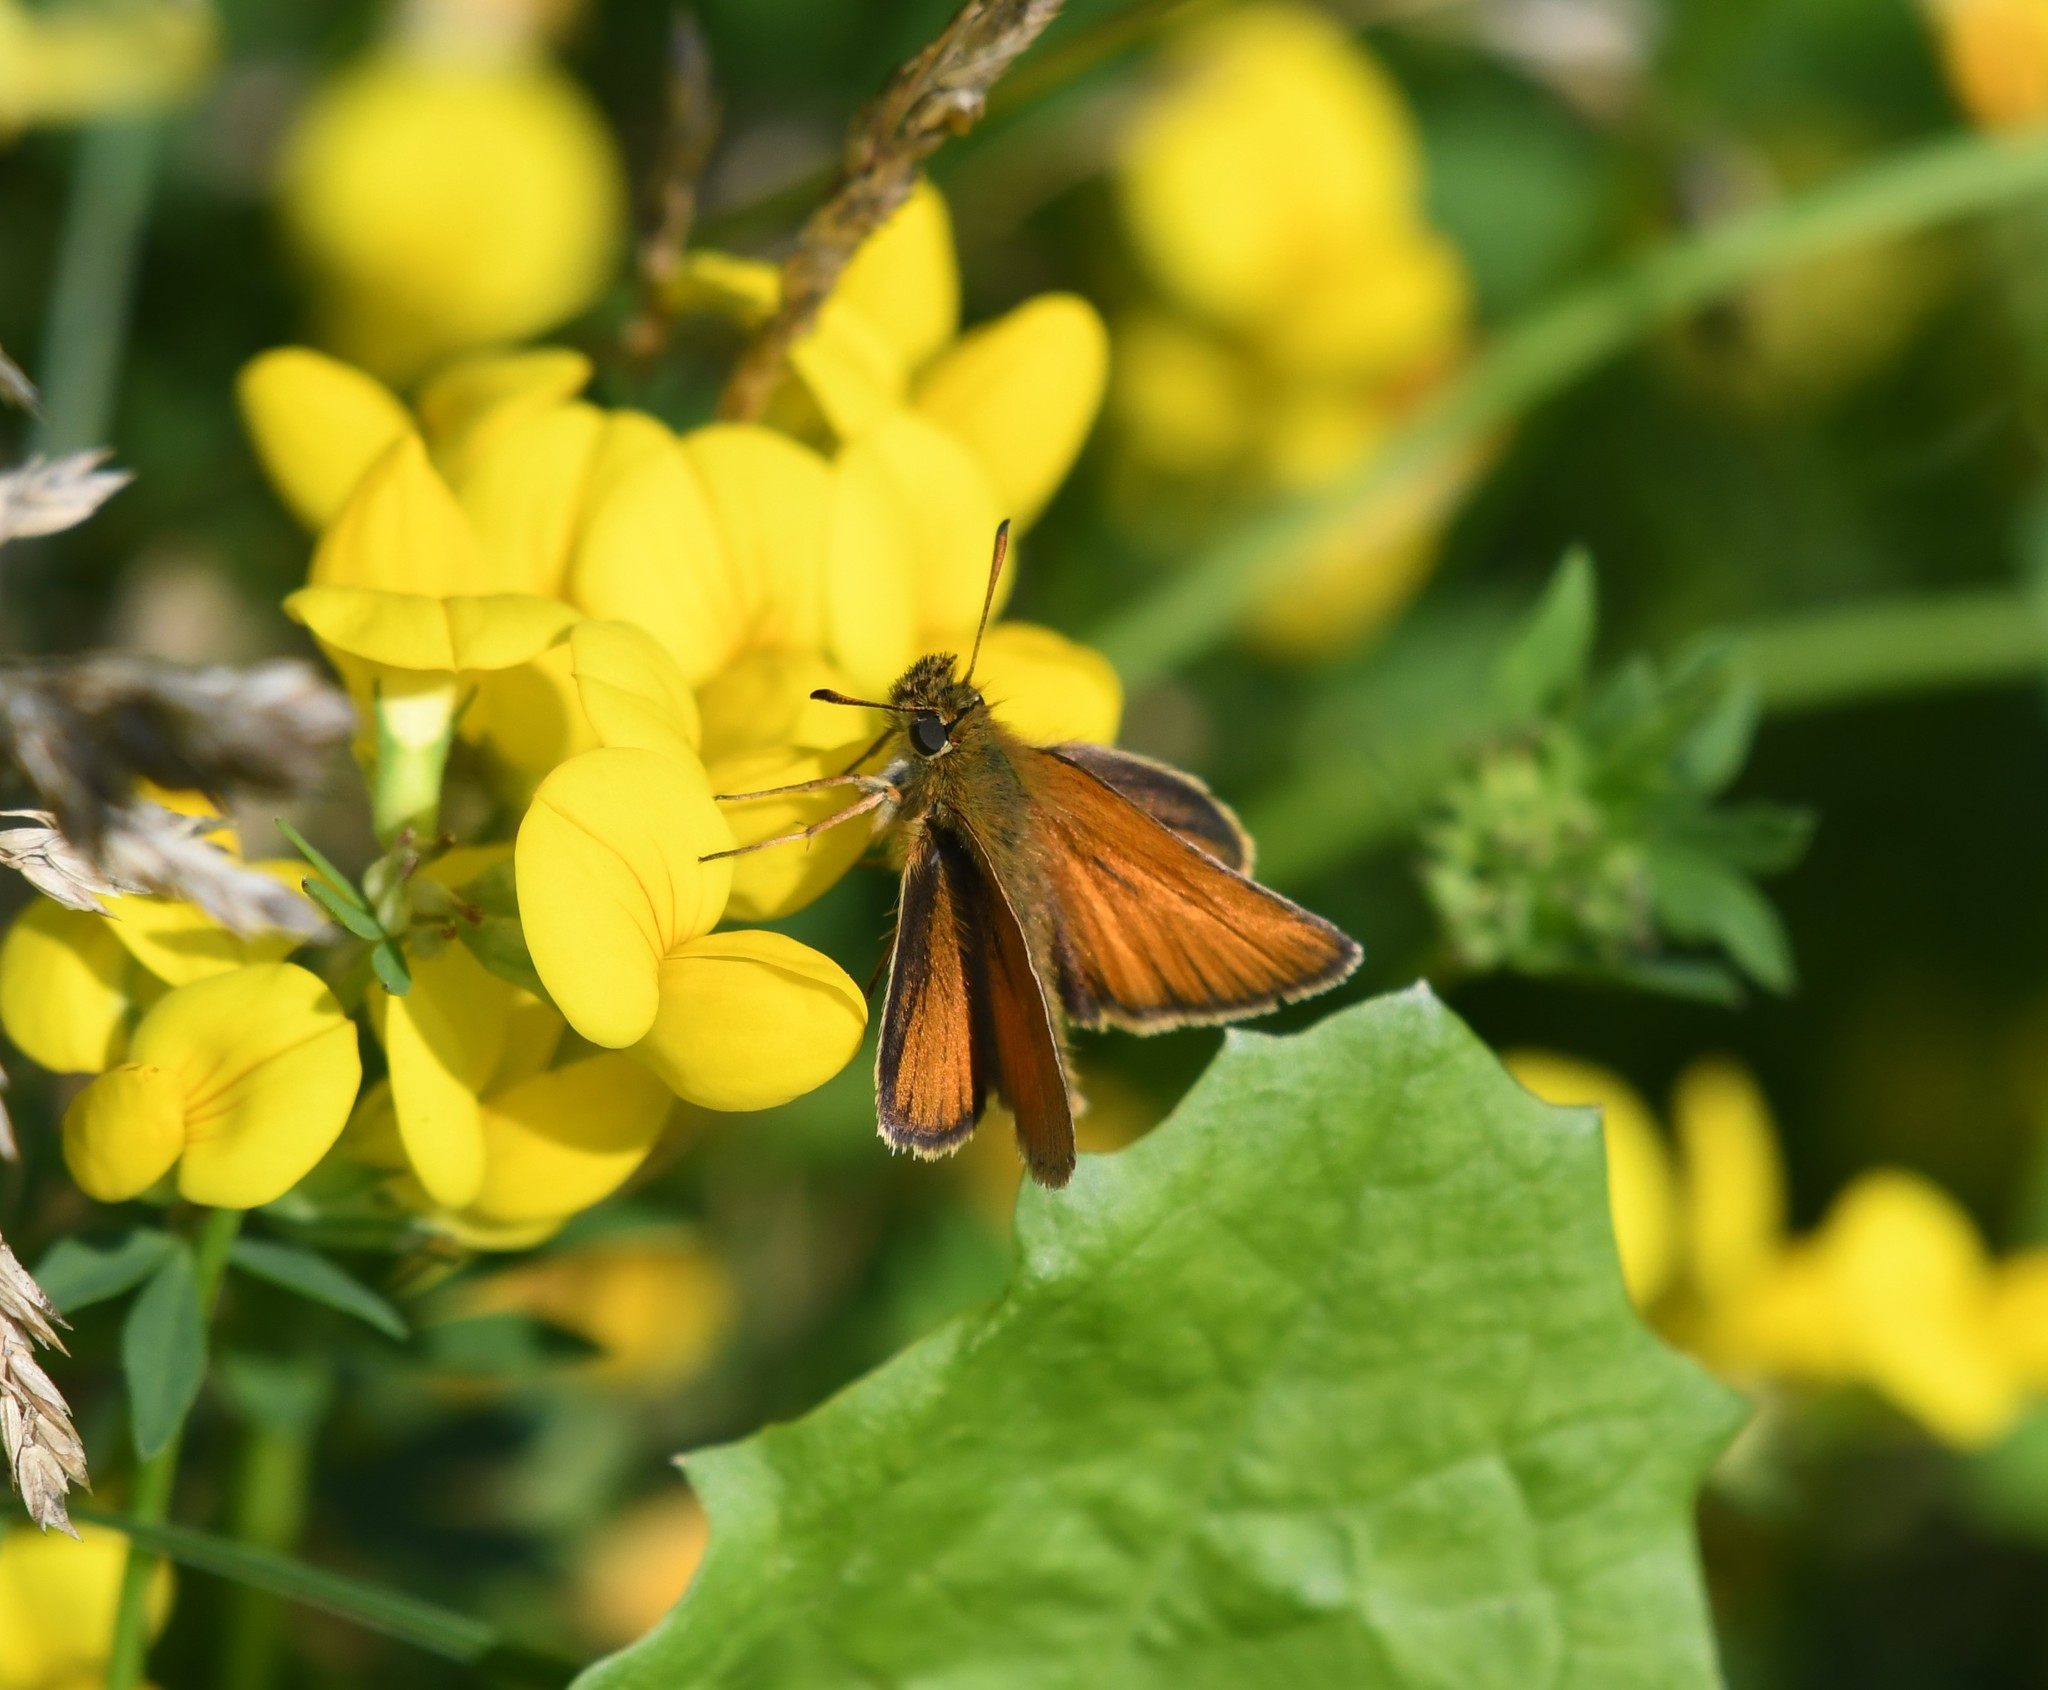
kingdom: Animalia
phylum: Arthropoda
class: Insecta
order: Lepidoptera
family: Hesperiidae
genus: Thymelicus
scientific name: Thymelicus lineola
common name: Essex skipper
